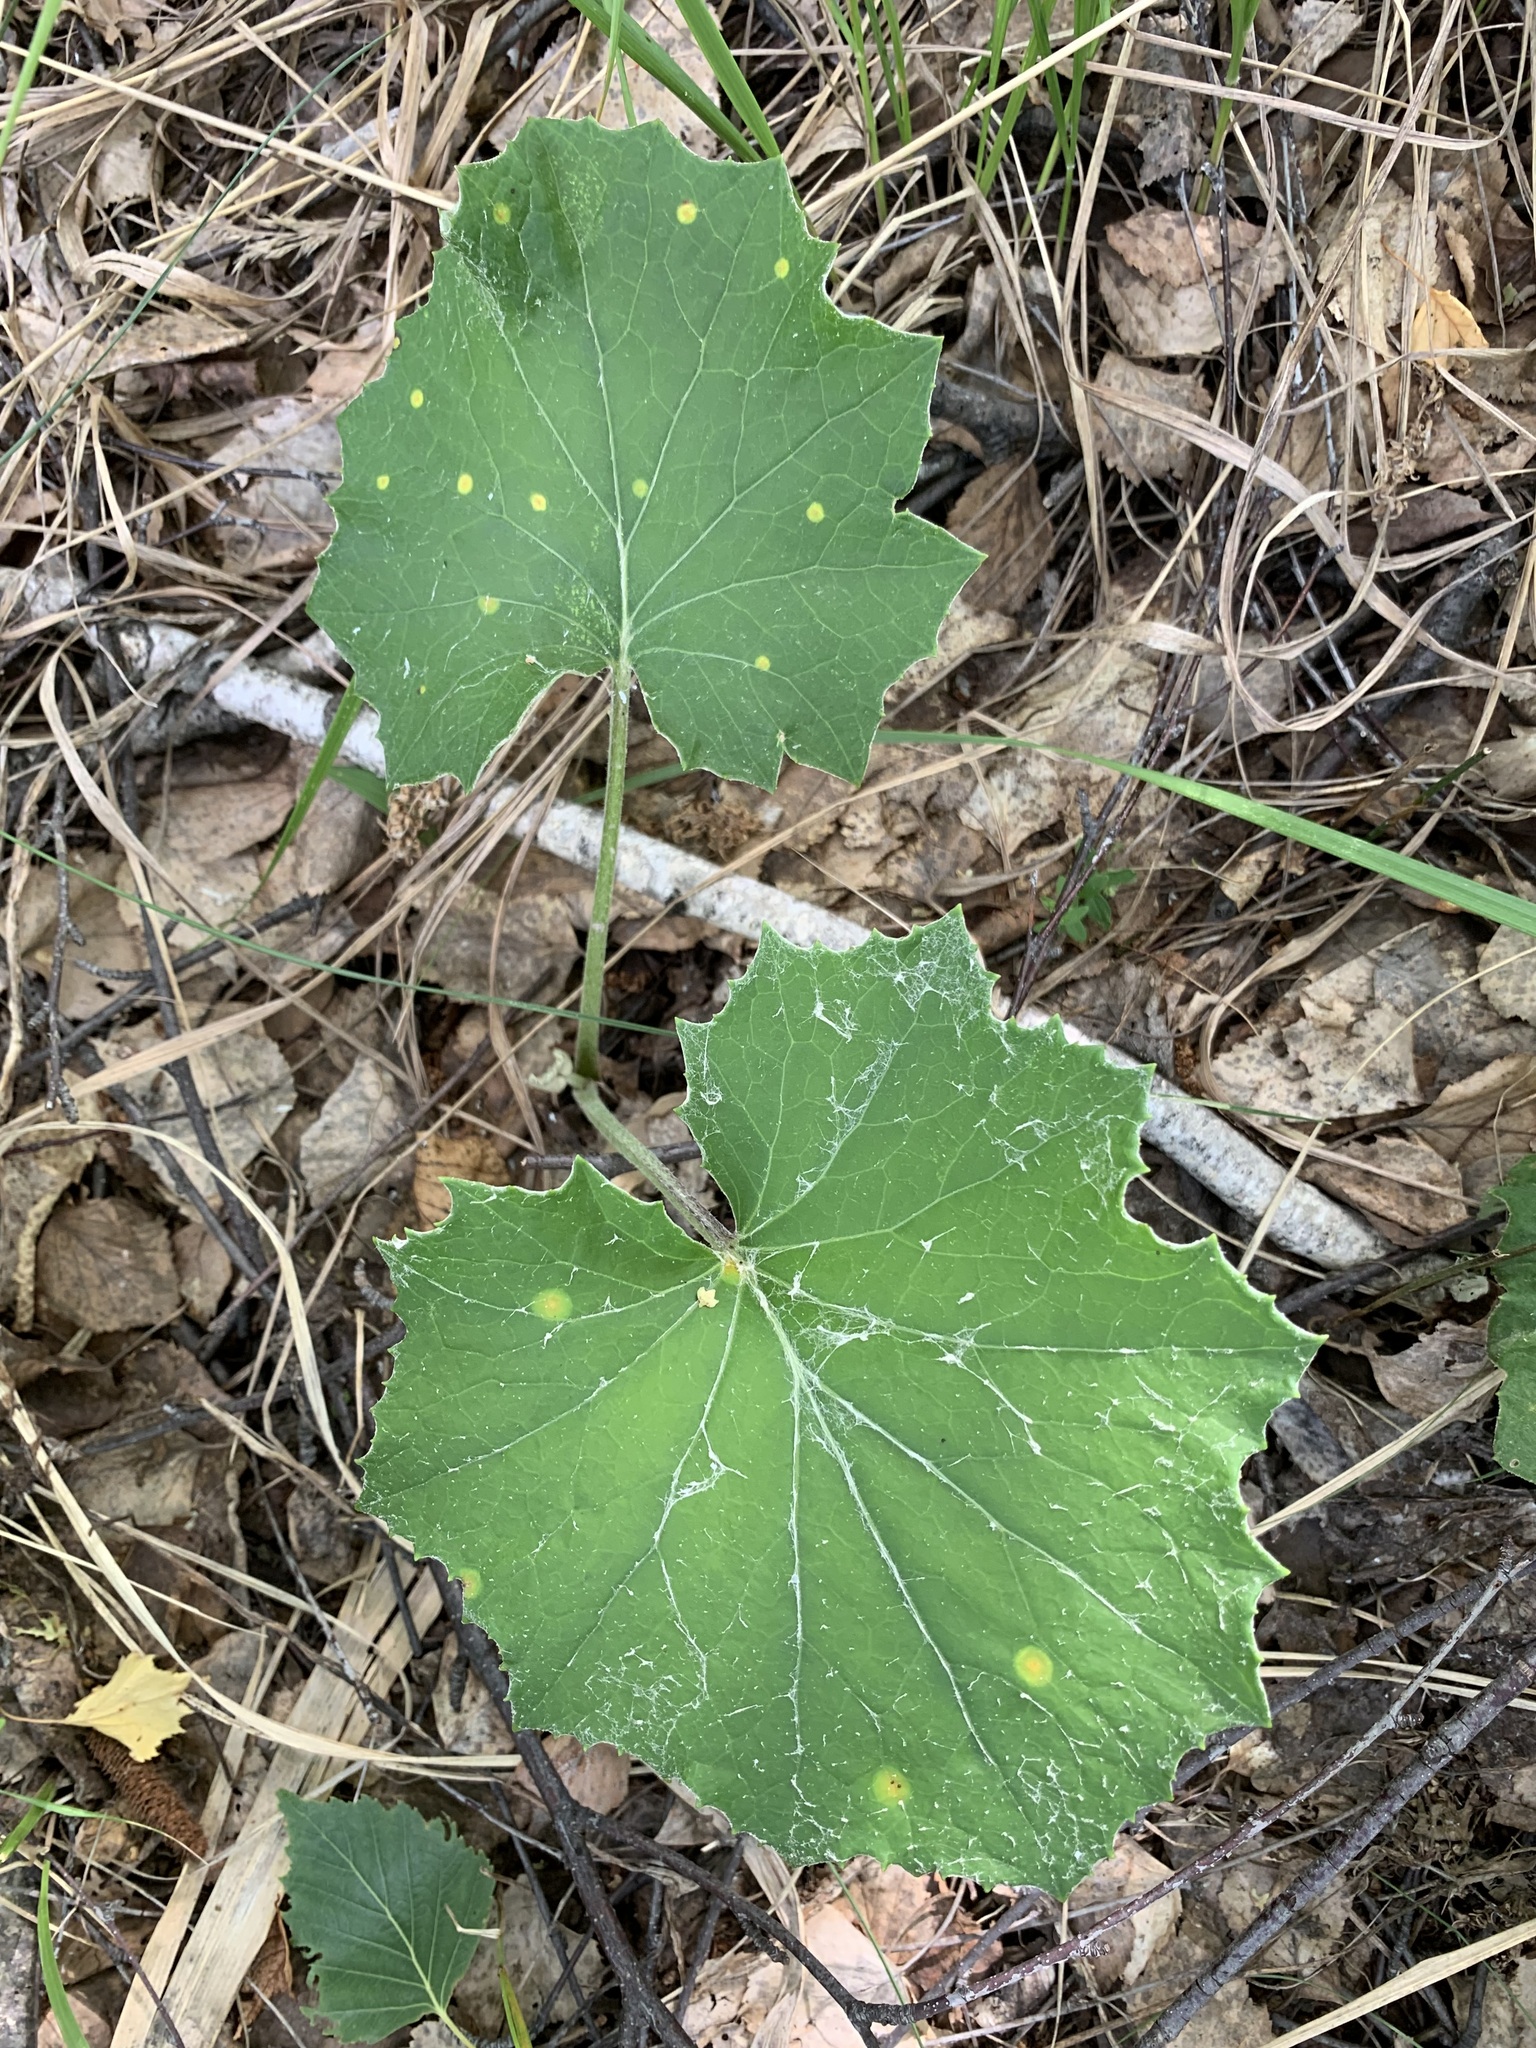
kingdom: Plantae
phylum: Tracheophyta
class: Magnoliopsida
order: Asterales
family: Asteraceae
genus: Tussilago
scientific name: Tussilago farfara
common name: Coltsfoot
